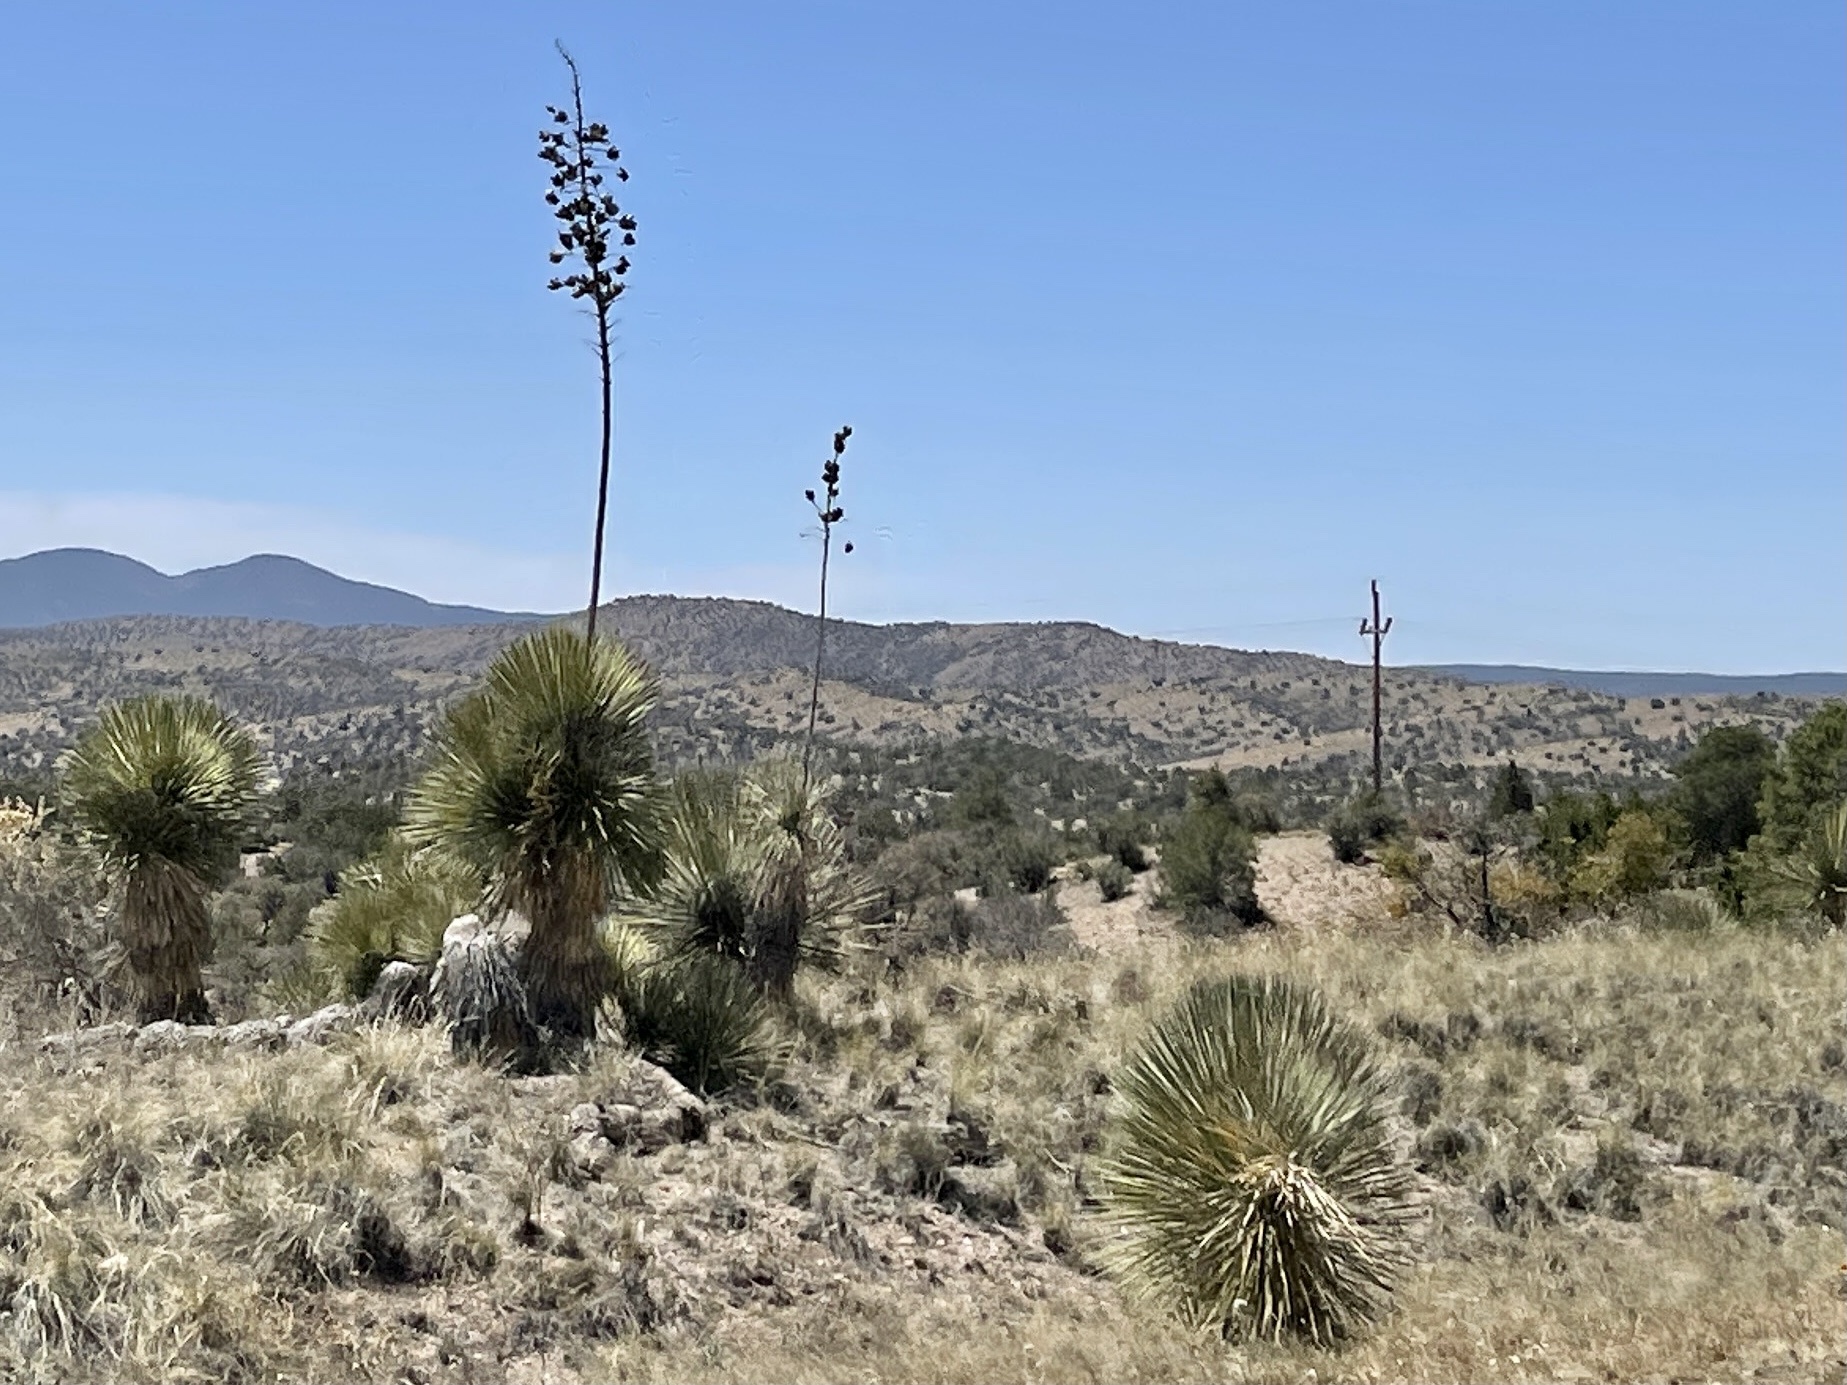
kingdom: Plantae
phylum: Tracheophyta
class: Liliopsida
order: Asparagales
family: Asparagaceae
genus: Yucca
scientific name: Yucca elata
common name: Palmella
